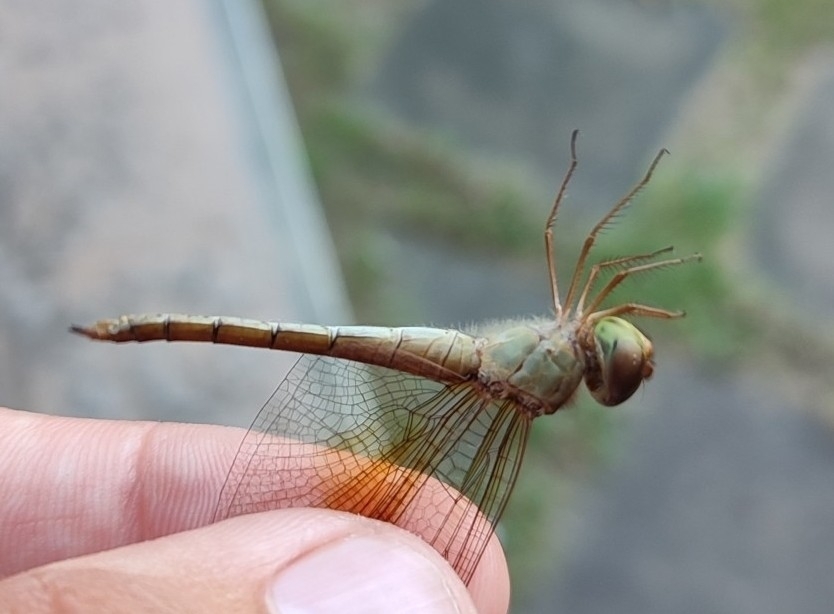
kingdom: Animalia
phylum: Arthropoda
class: Insecta
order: Odonata
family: Libellulidae
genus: Tholymis
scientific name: Tholymis tillarga
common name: Coral-tailed cloud wing
